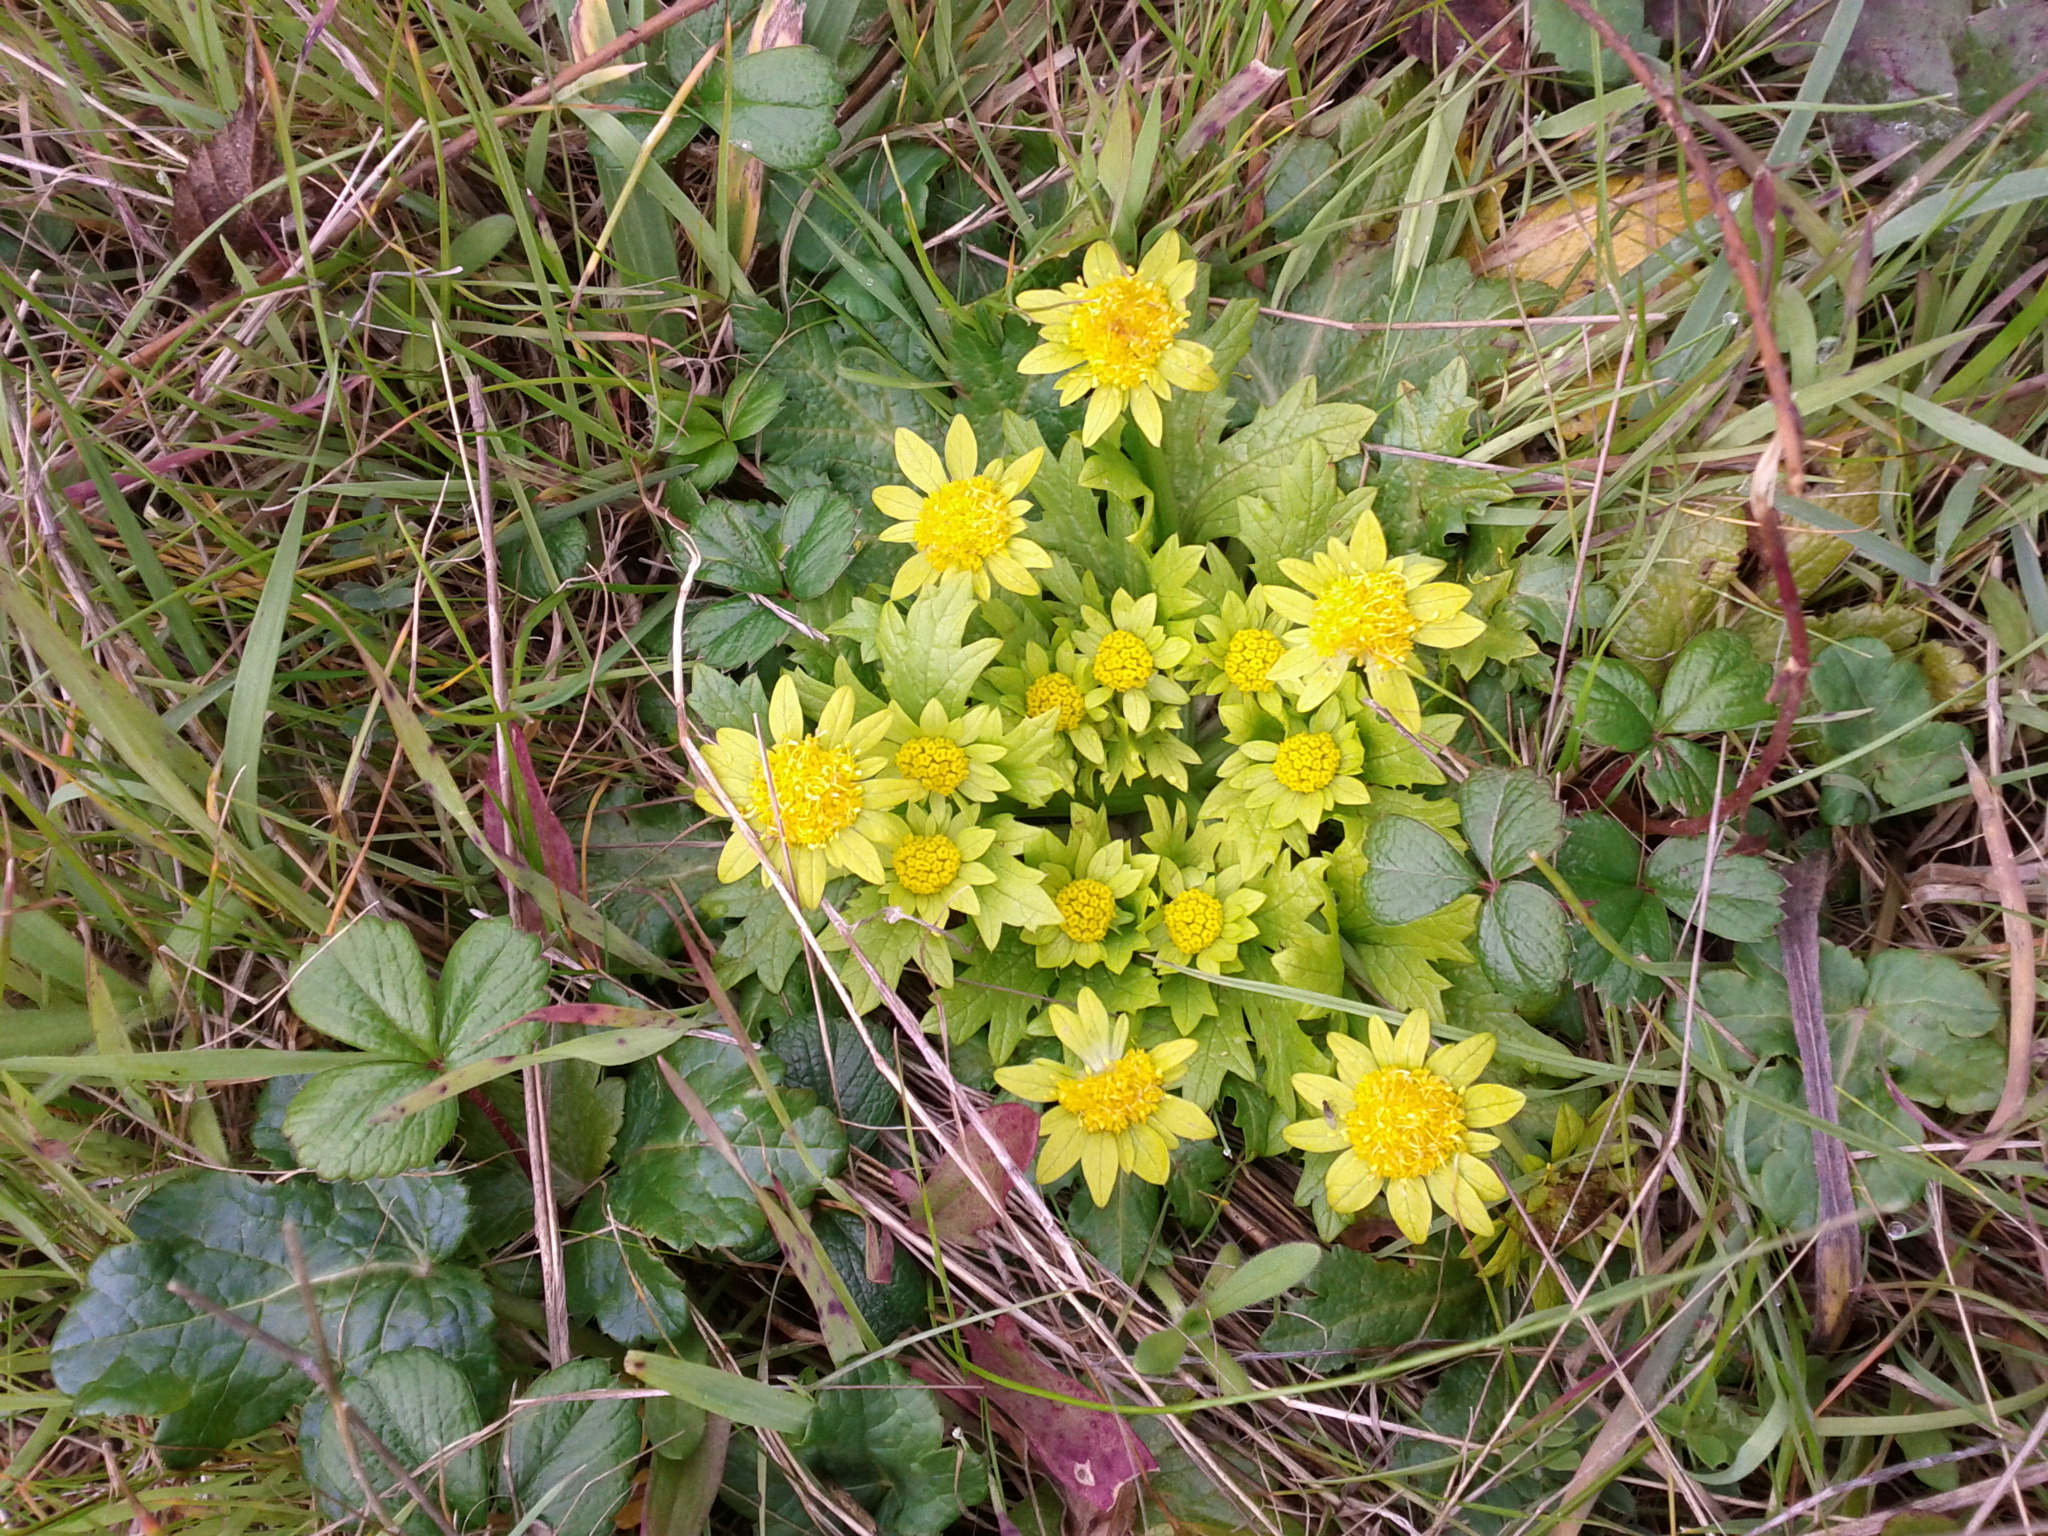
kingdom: Plantae
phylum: Tracheophyta
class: Magnoliopsida
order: Apiales
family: Apiaceae
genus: Sanicula
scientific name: Sanicula arctopoides
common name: Footsteps-of-spring
